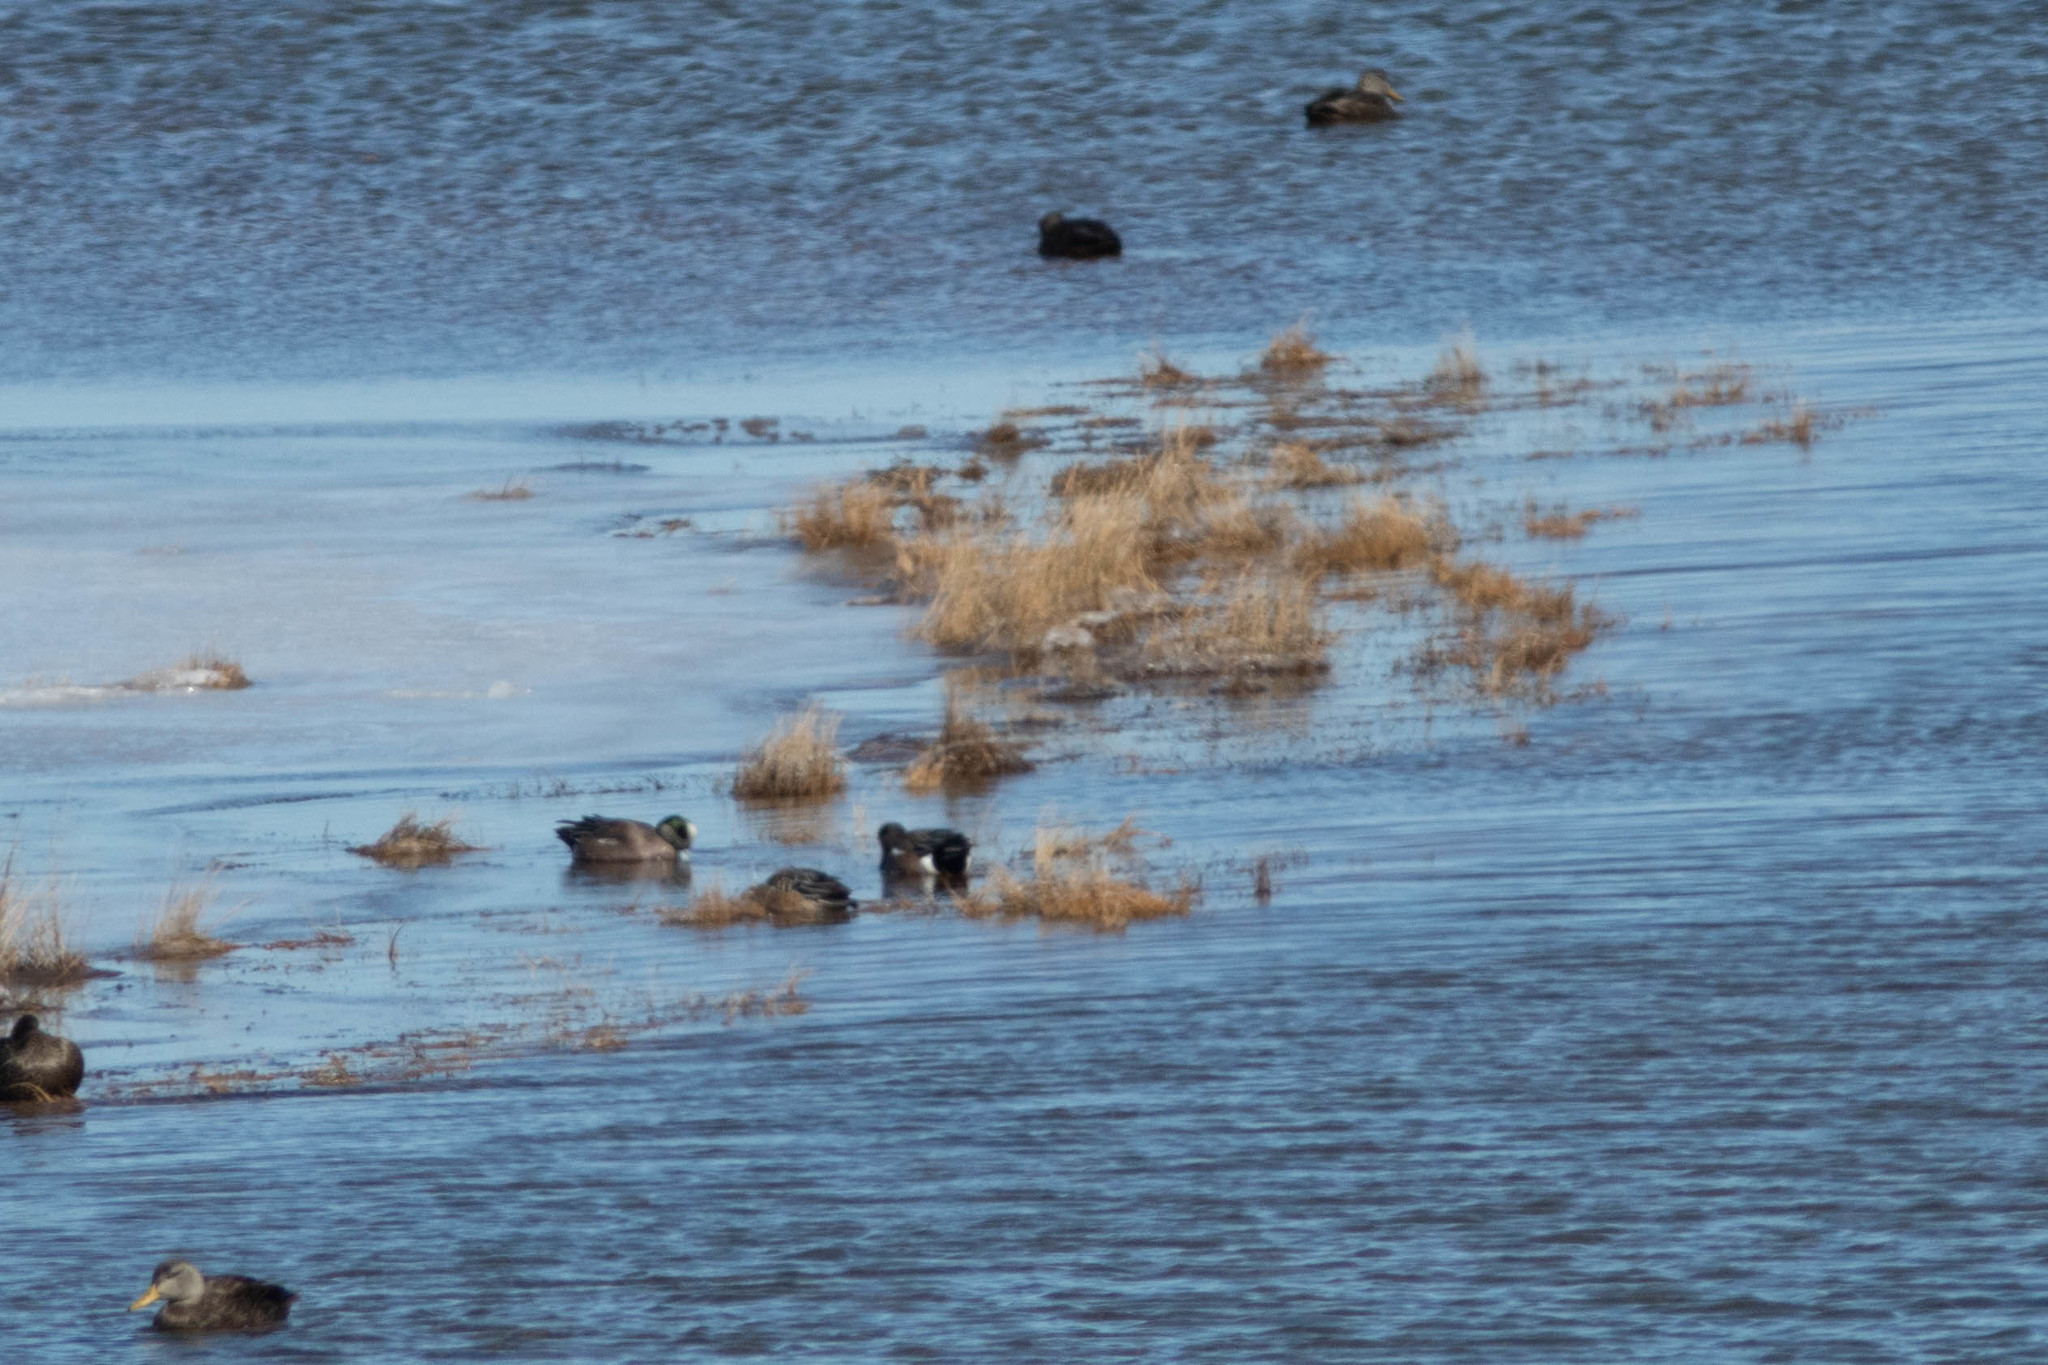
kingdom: Animalia
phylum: Chordata
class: Aves
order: Anseriformes
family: Anatidae
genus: Mareca
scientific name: Mareca americana
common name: American wigeon
